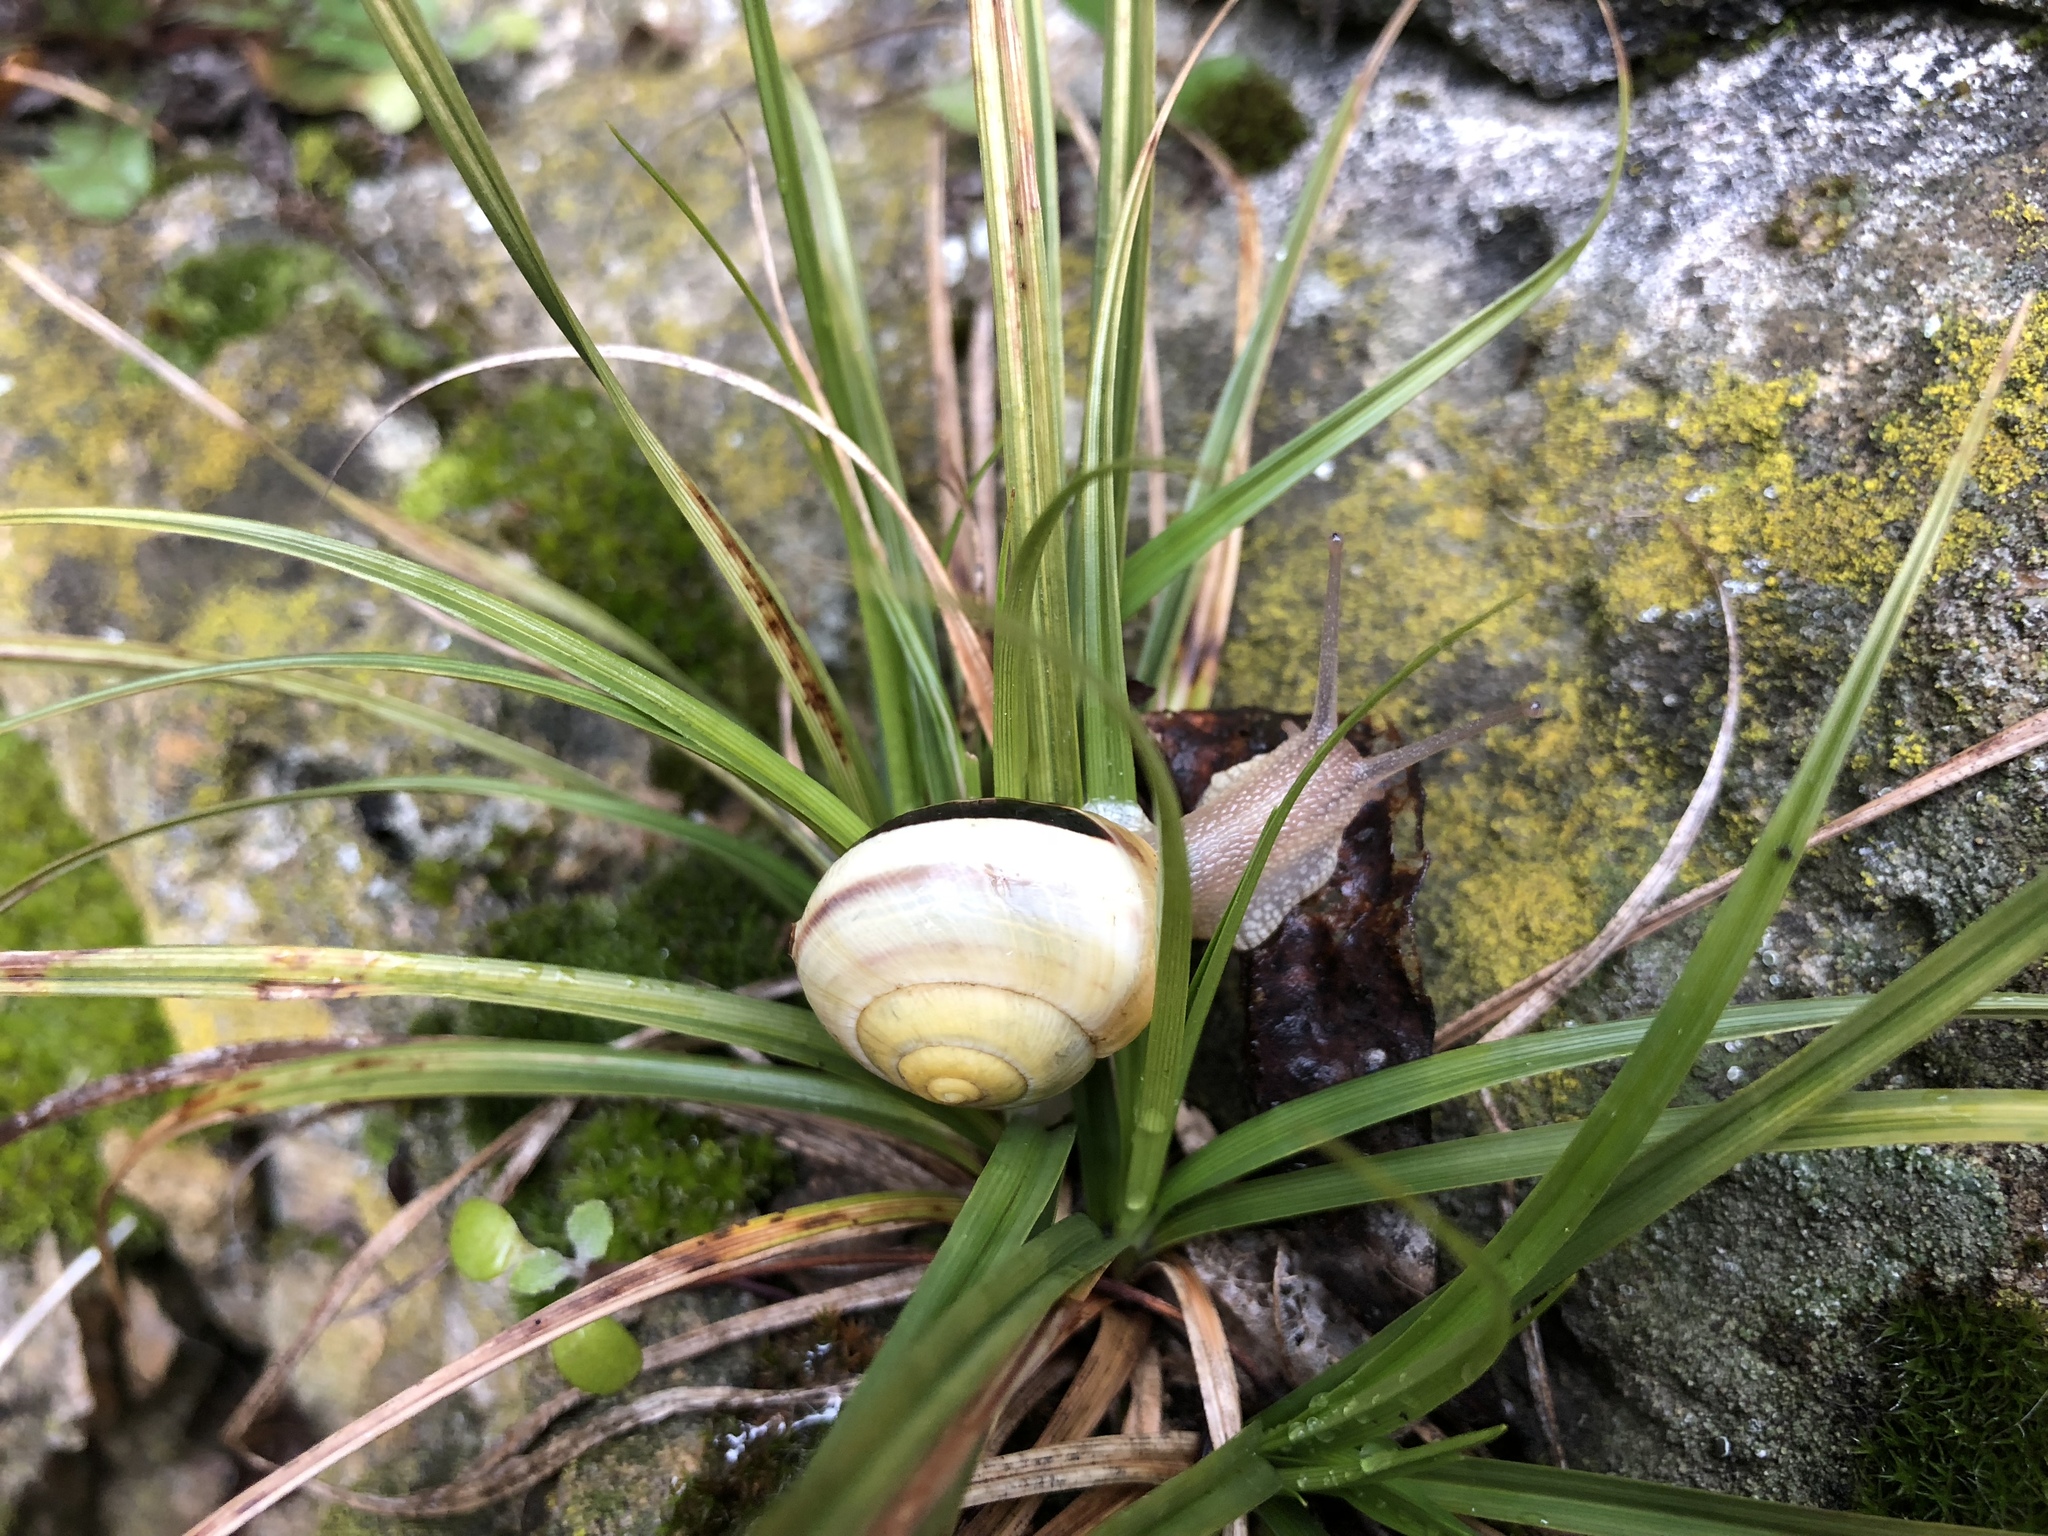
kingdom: Animalia
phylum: Mollusca
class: Gastropoda
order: Stylommatophora
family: Helicidae
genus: Cepaea
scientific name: Cepaea nemoralis
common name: Grovesnail
